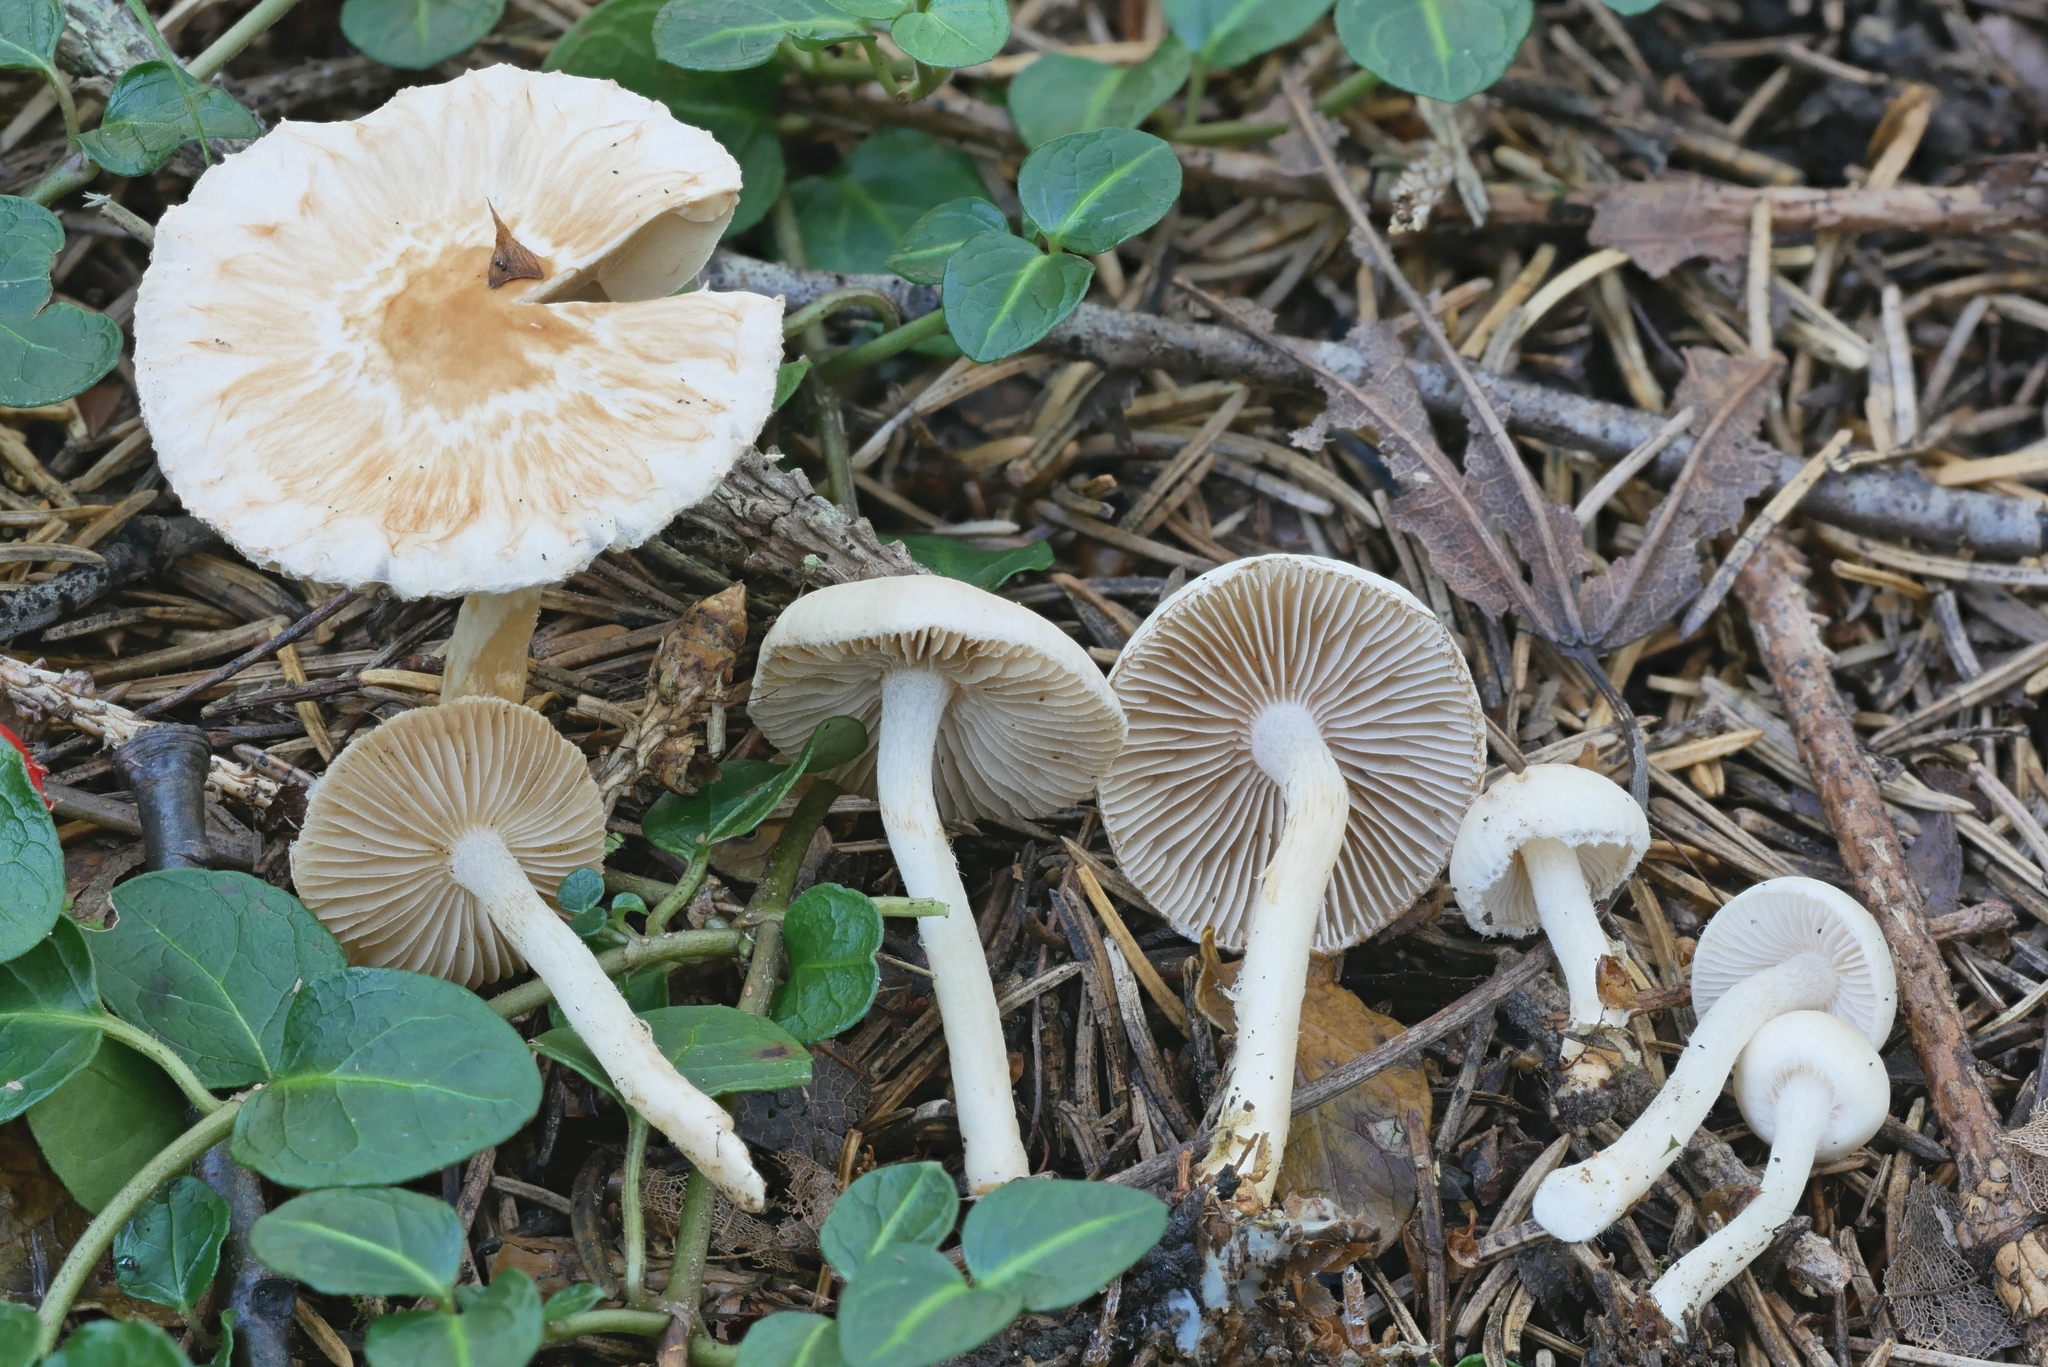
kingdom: Fungi
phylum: Basidiomycota
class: Agaricomycetes
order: Agaricales
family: Inocybaceae
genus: Inocybe
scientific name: Inocybe armeniaca
